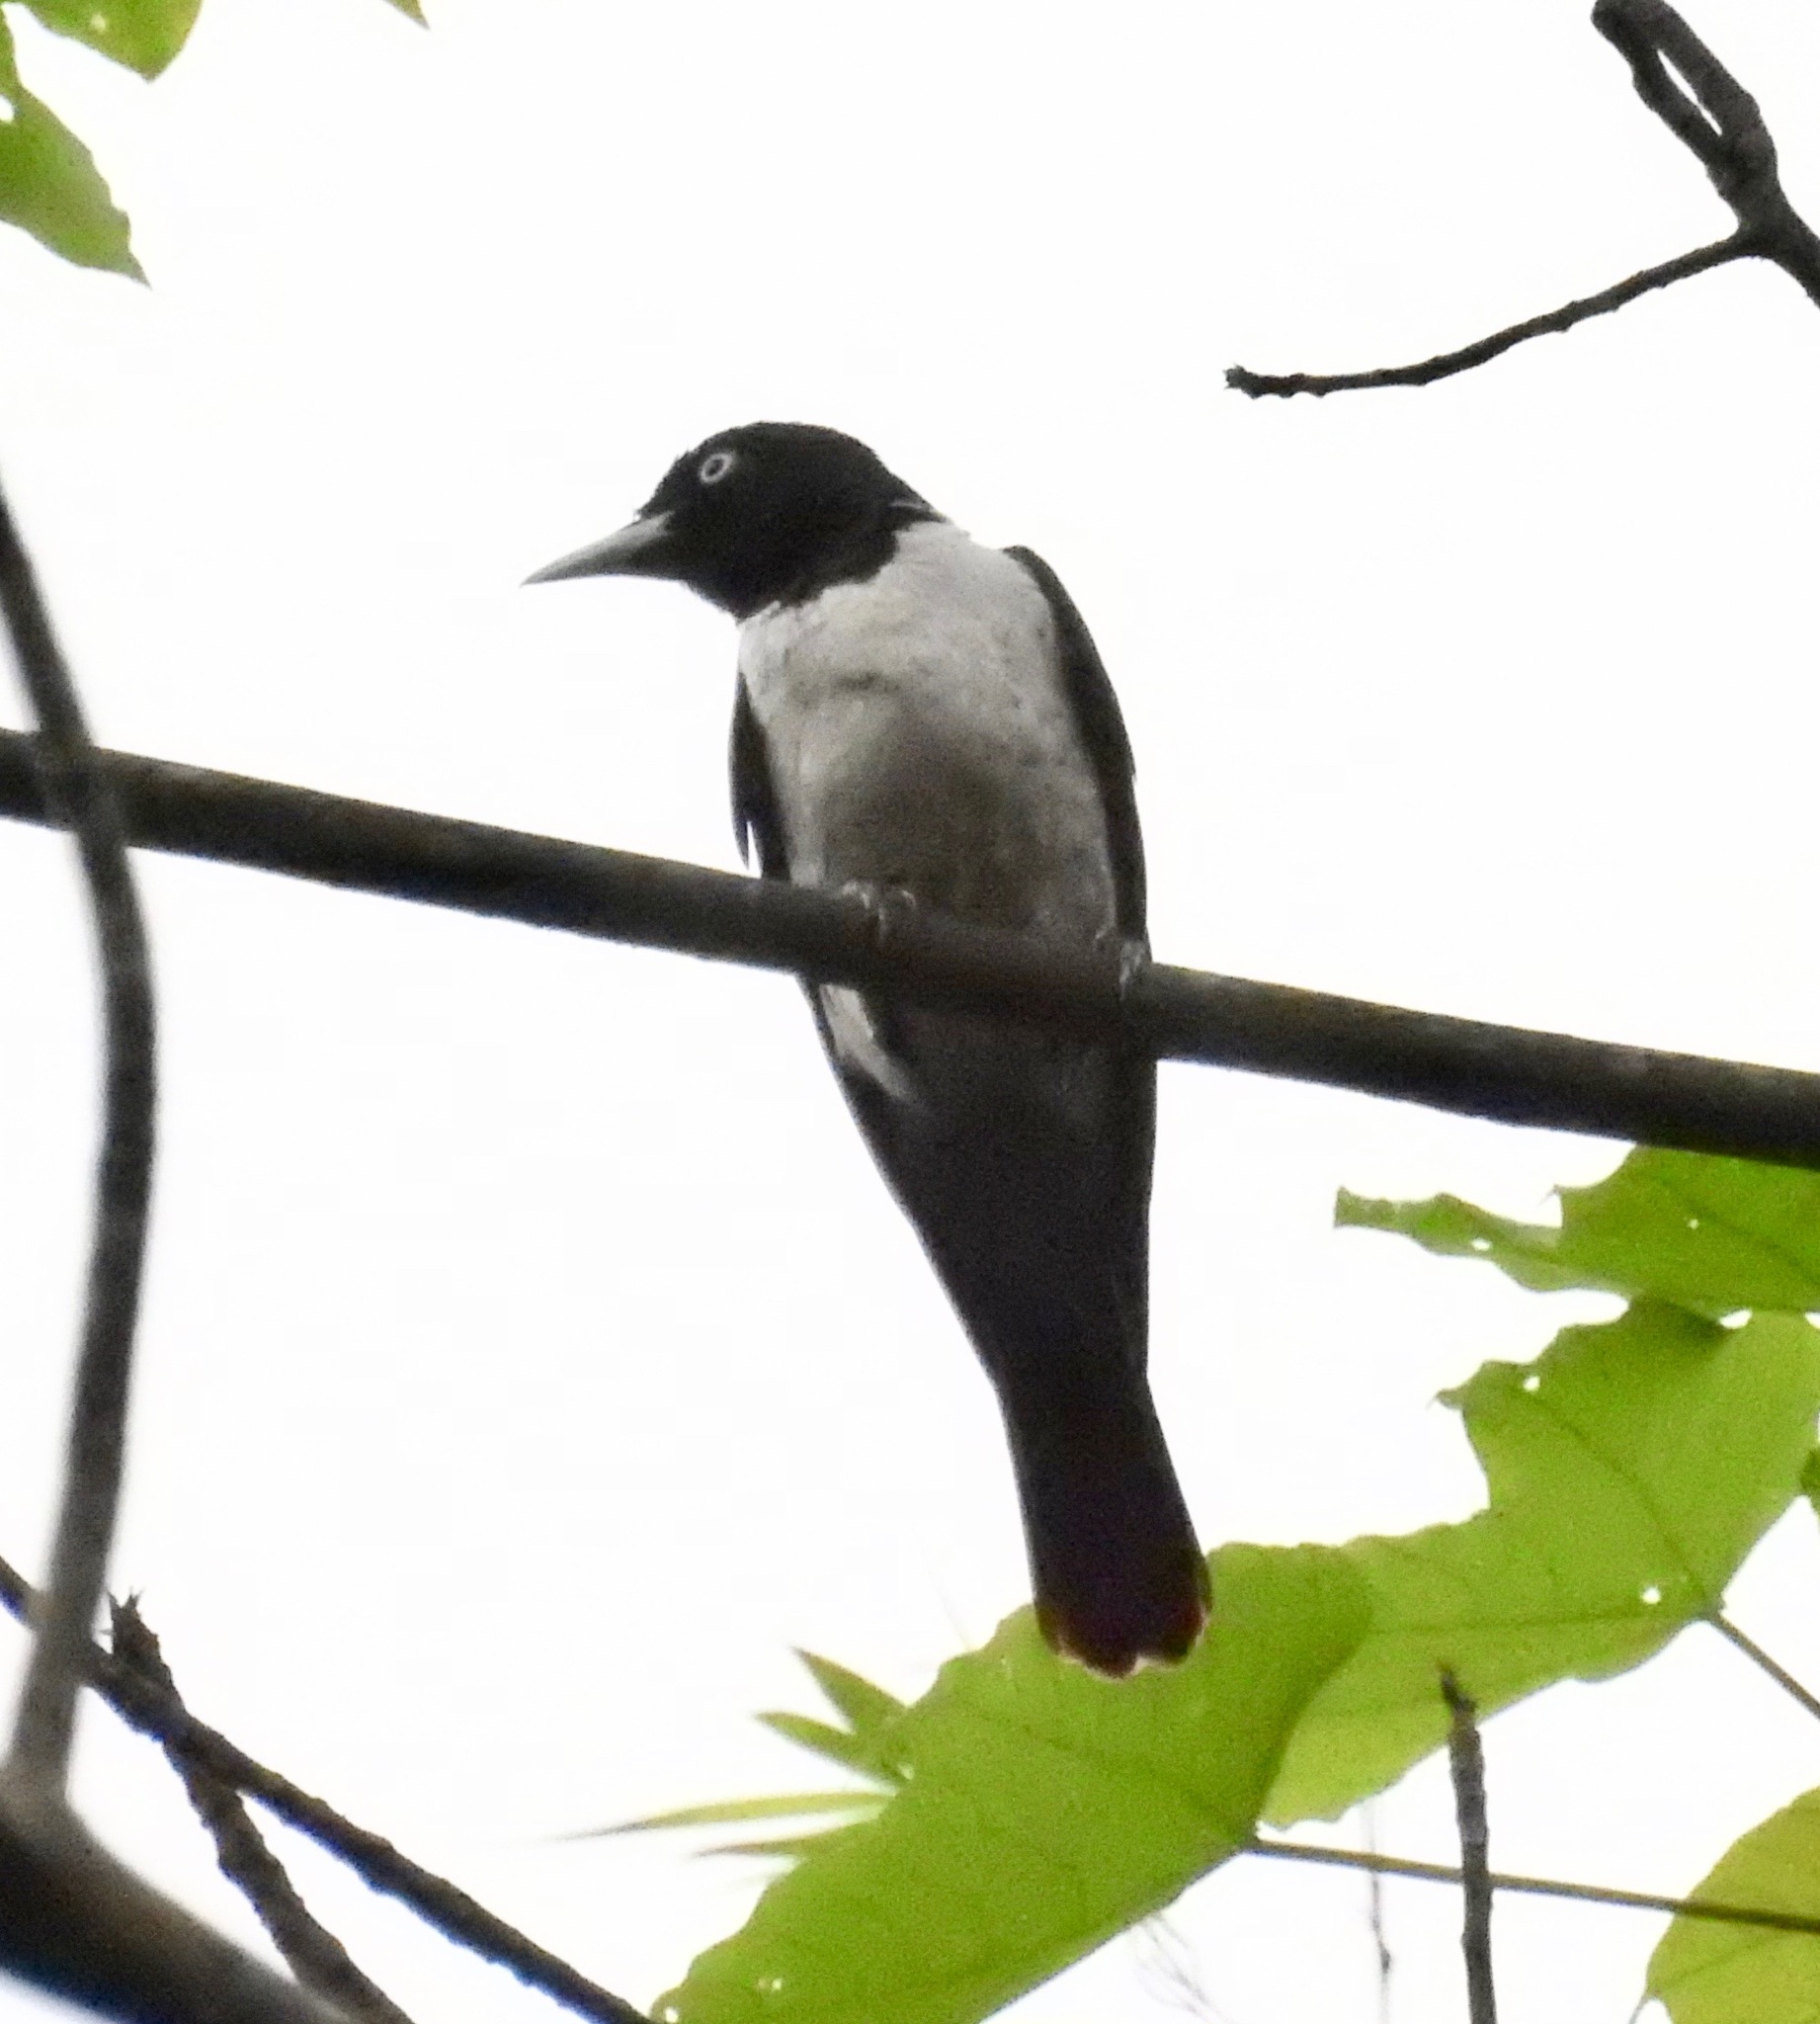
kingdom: Animalia
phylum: Chordata
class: Aves
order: Passeriformes
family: Oriolidae
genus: Oriolus
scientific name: Oriolus mellianus
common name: Silver oriole
